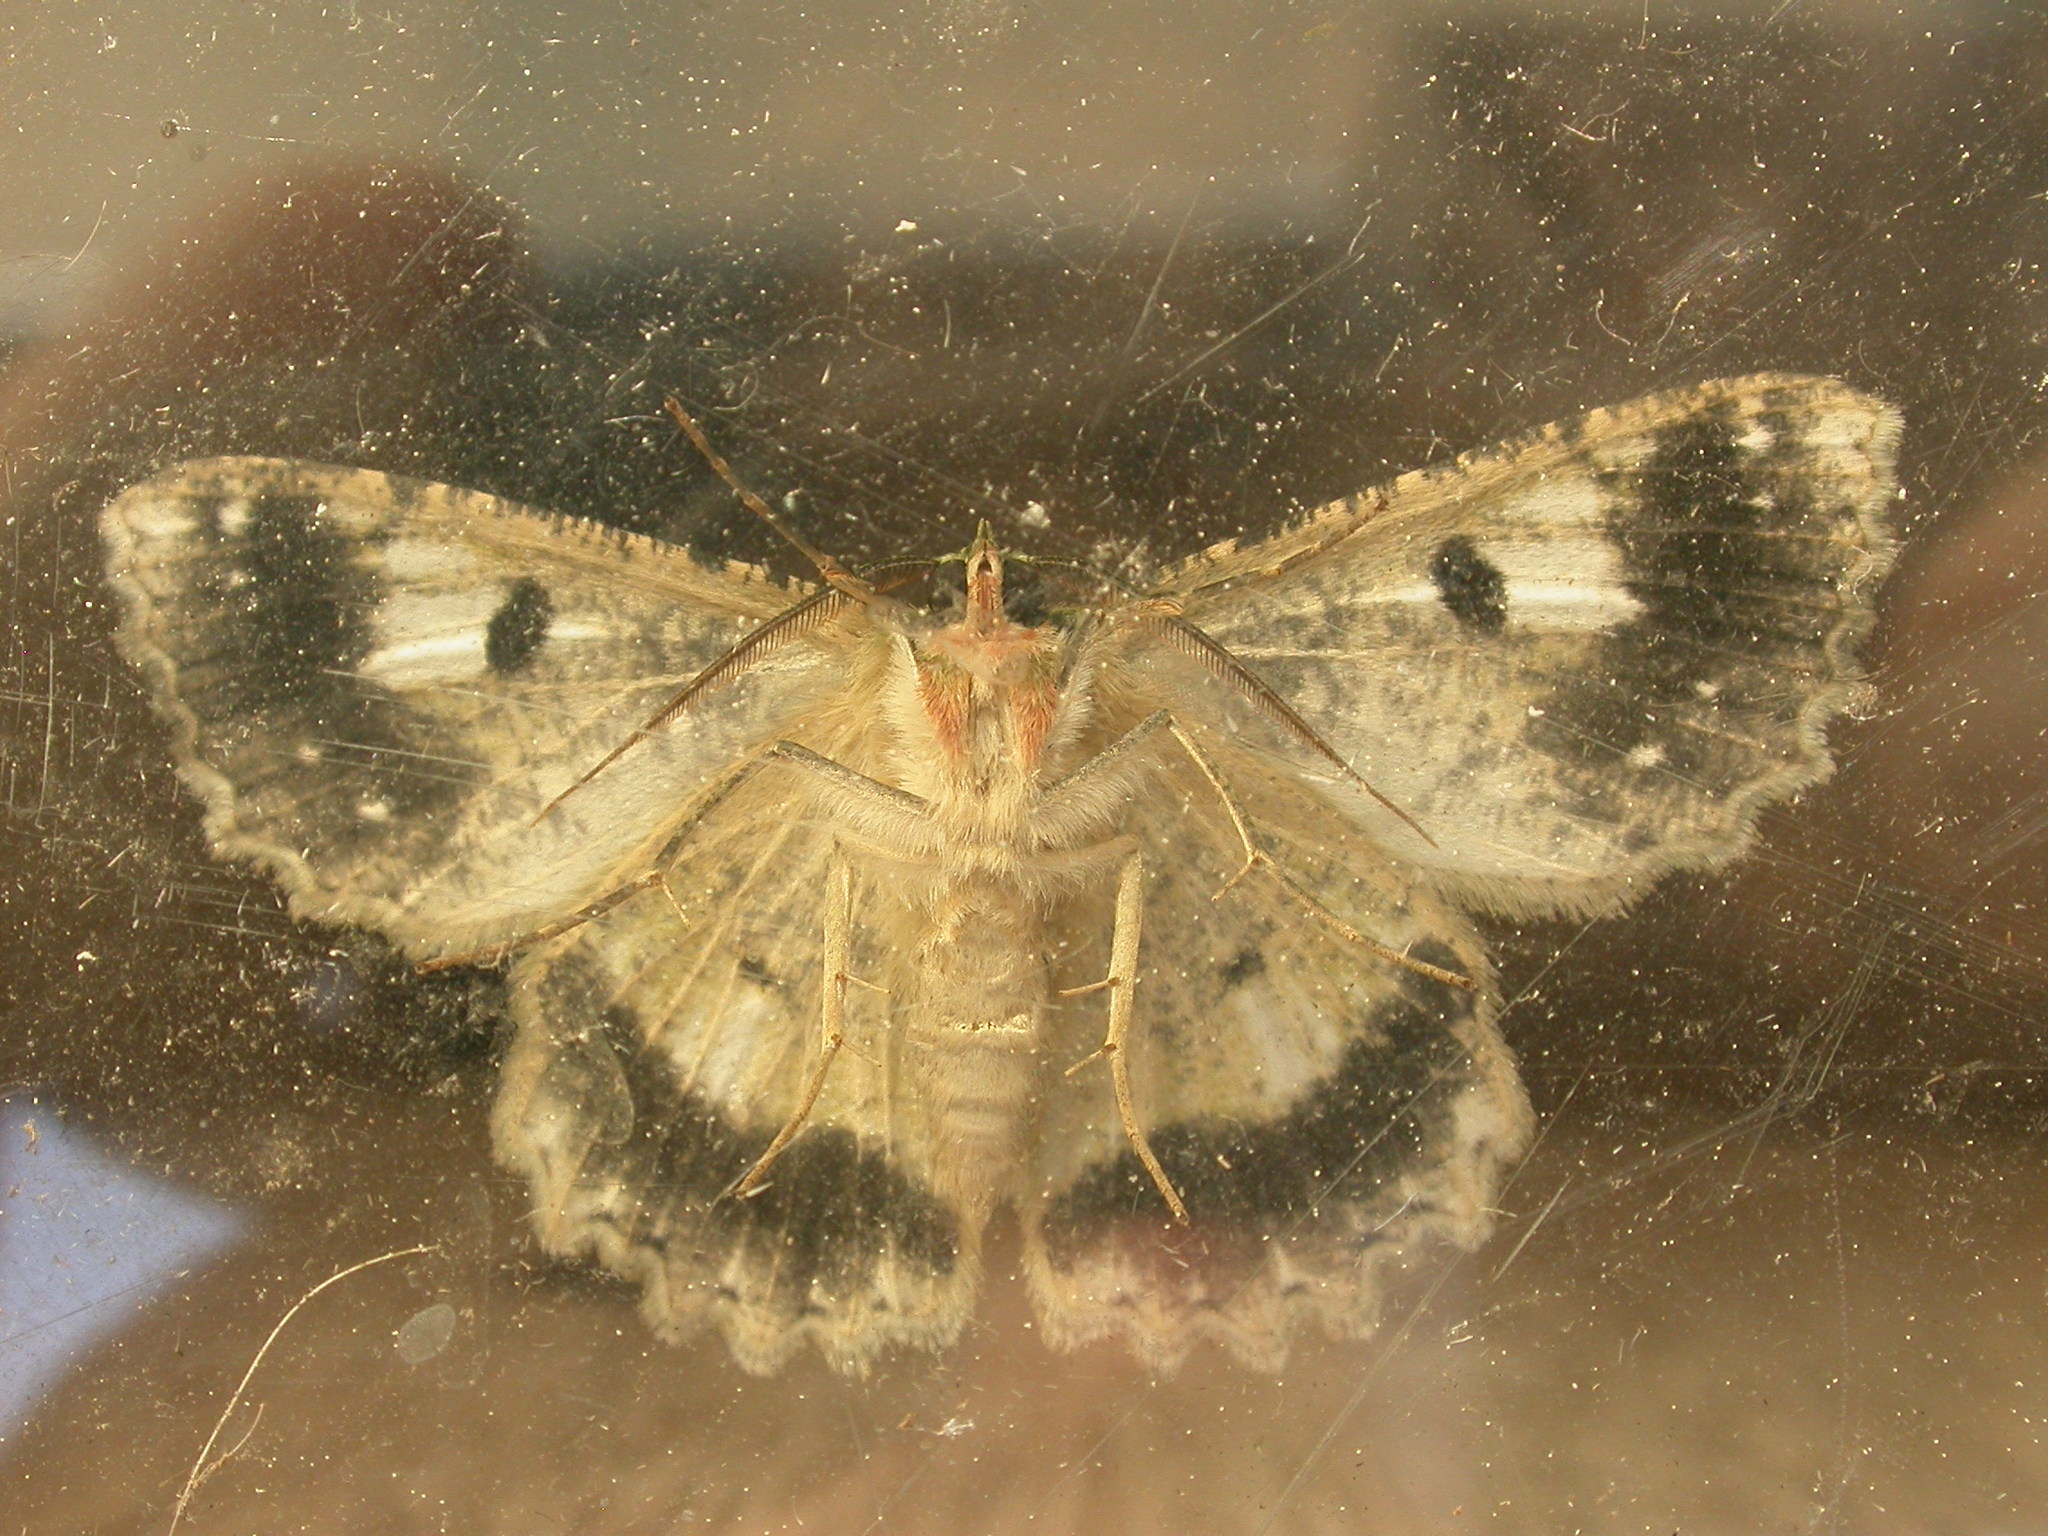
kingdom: Animalia
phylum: Arthropoda
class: Insecta
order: Lepidoptera
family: Geometridae
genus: Hypodoxa
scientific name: Hypodoxa muscosaria
